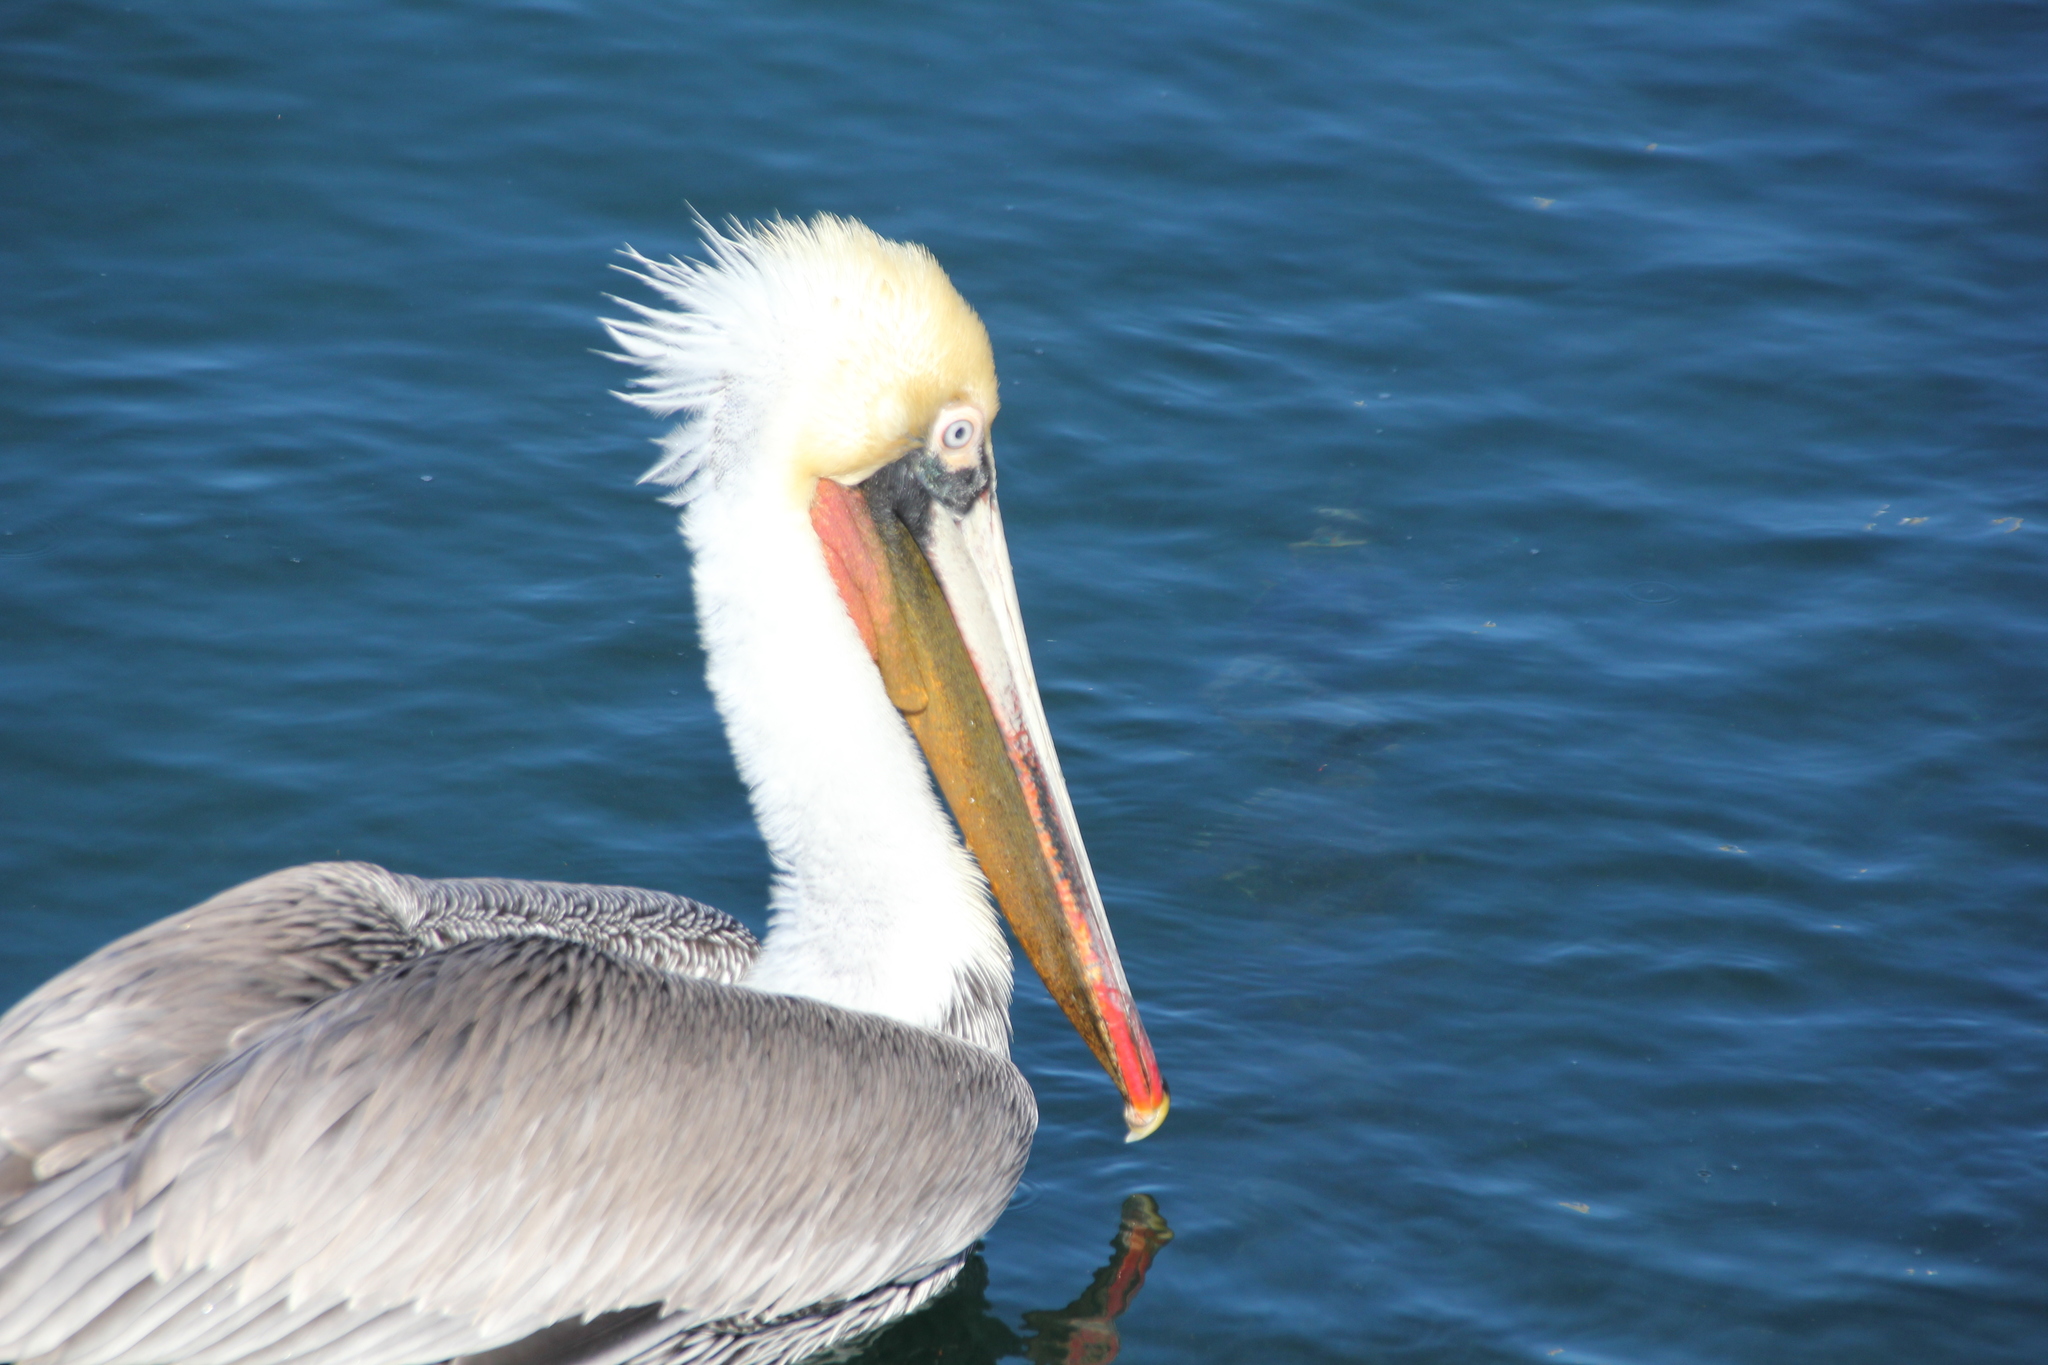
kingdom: Animalia
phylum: Chordata
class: Aves
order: Pelecaniformes
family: Pelecanidae
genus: Pelecanus
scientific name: Pelecanus occidentalis
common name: Brown pelican
